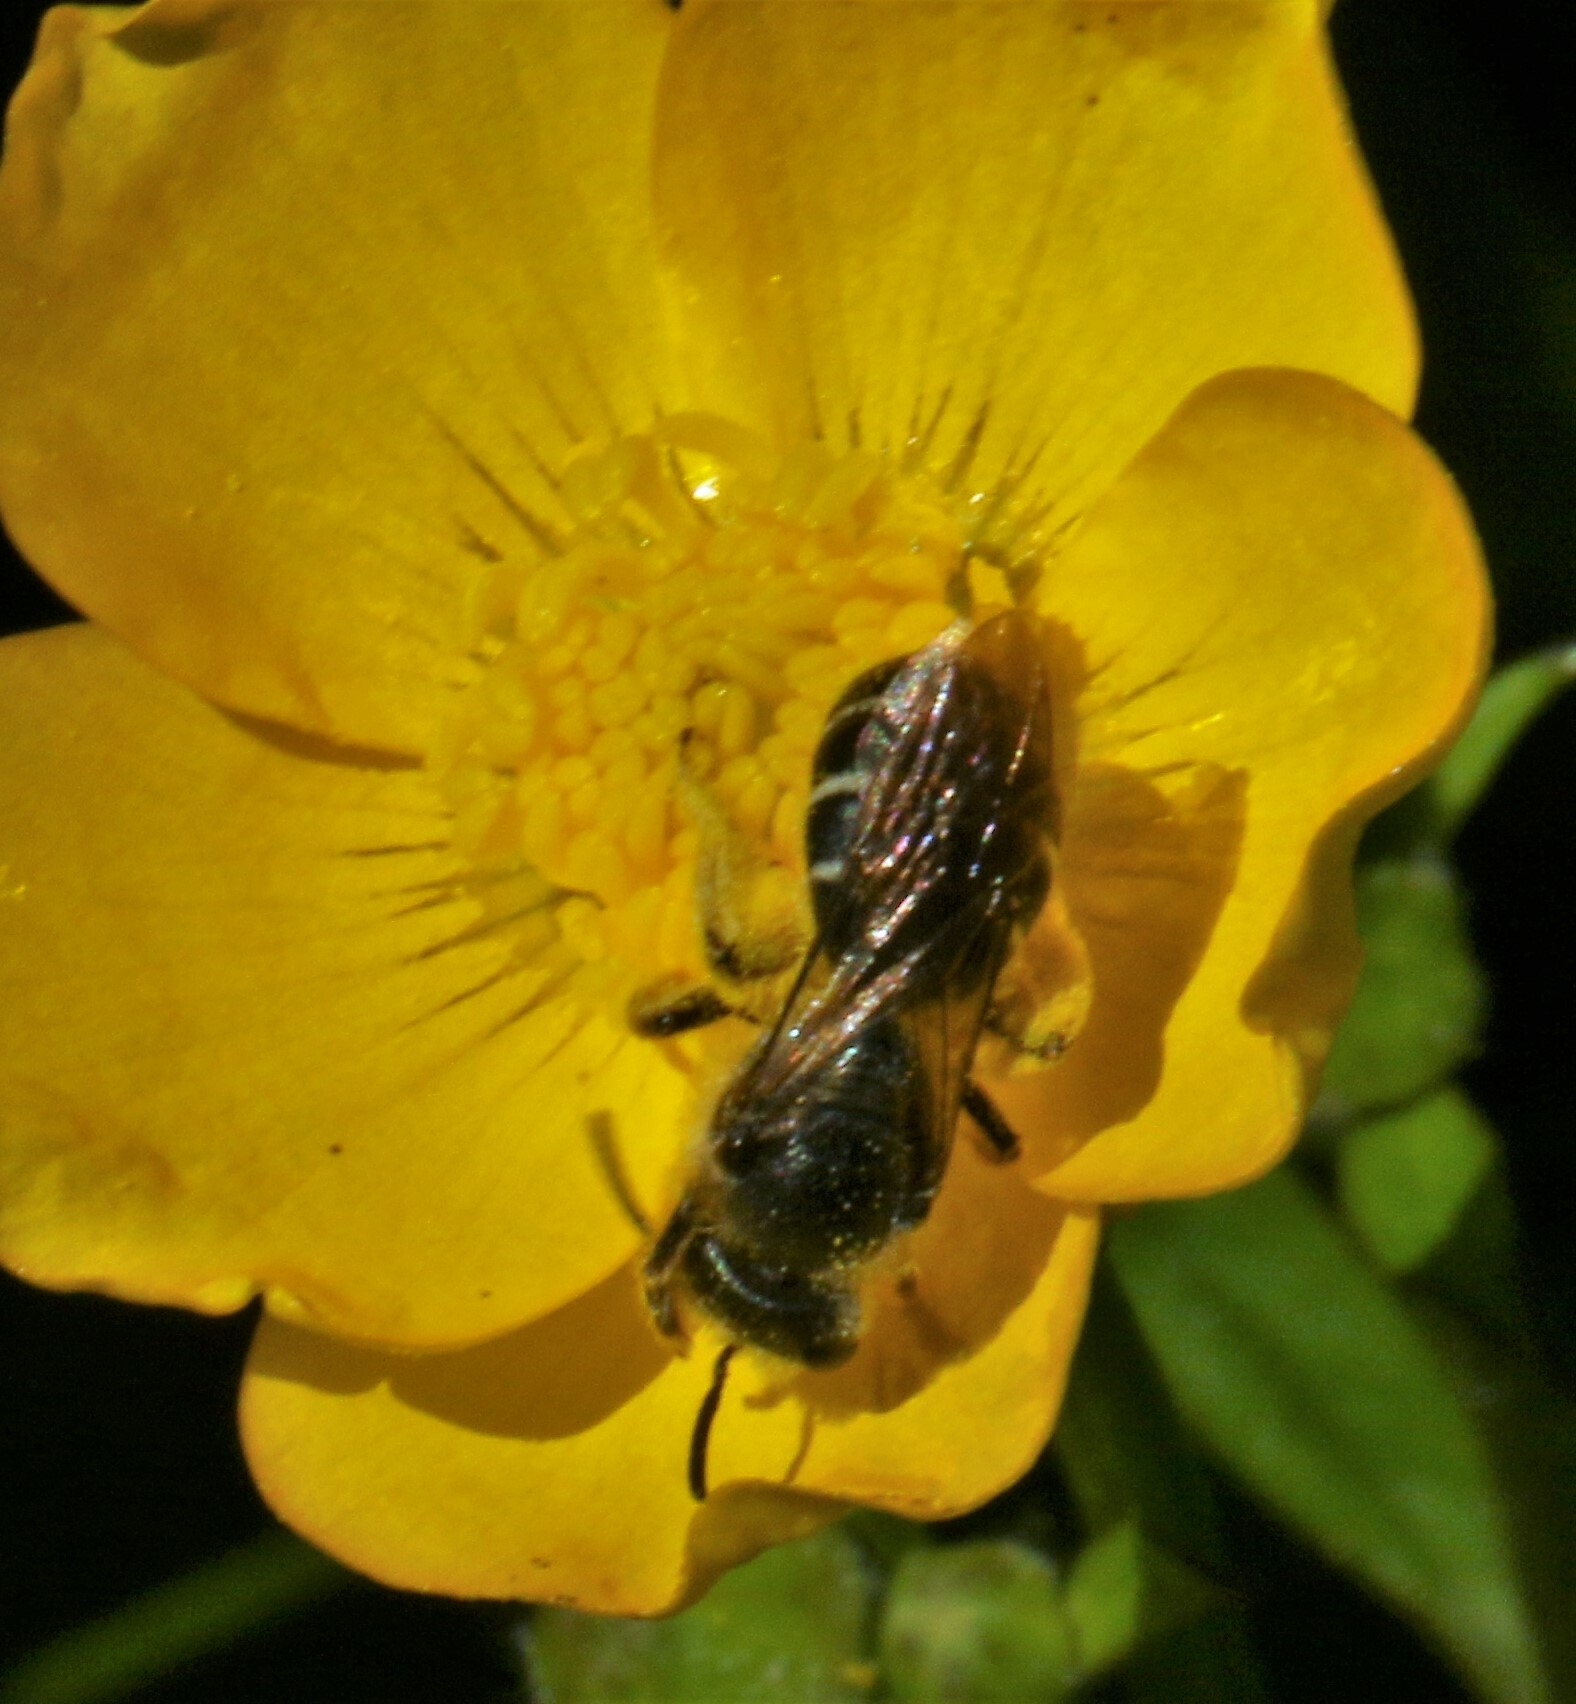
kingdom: Animalia
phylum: Arthropoda
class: Insecta
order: Hymenoptera
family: Halictidae
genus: Halictus
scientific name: Halictus rubicundus
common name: Orange-legged furrow bee
